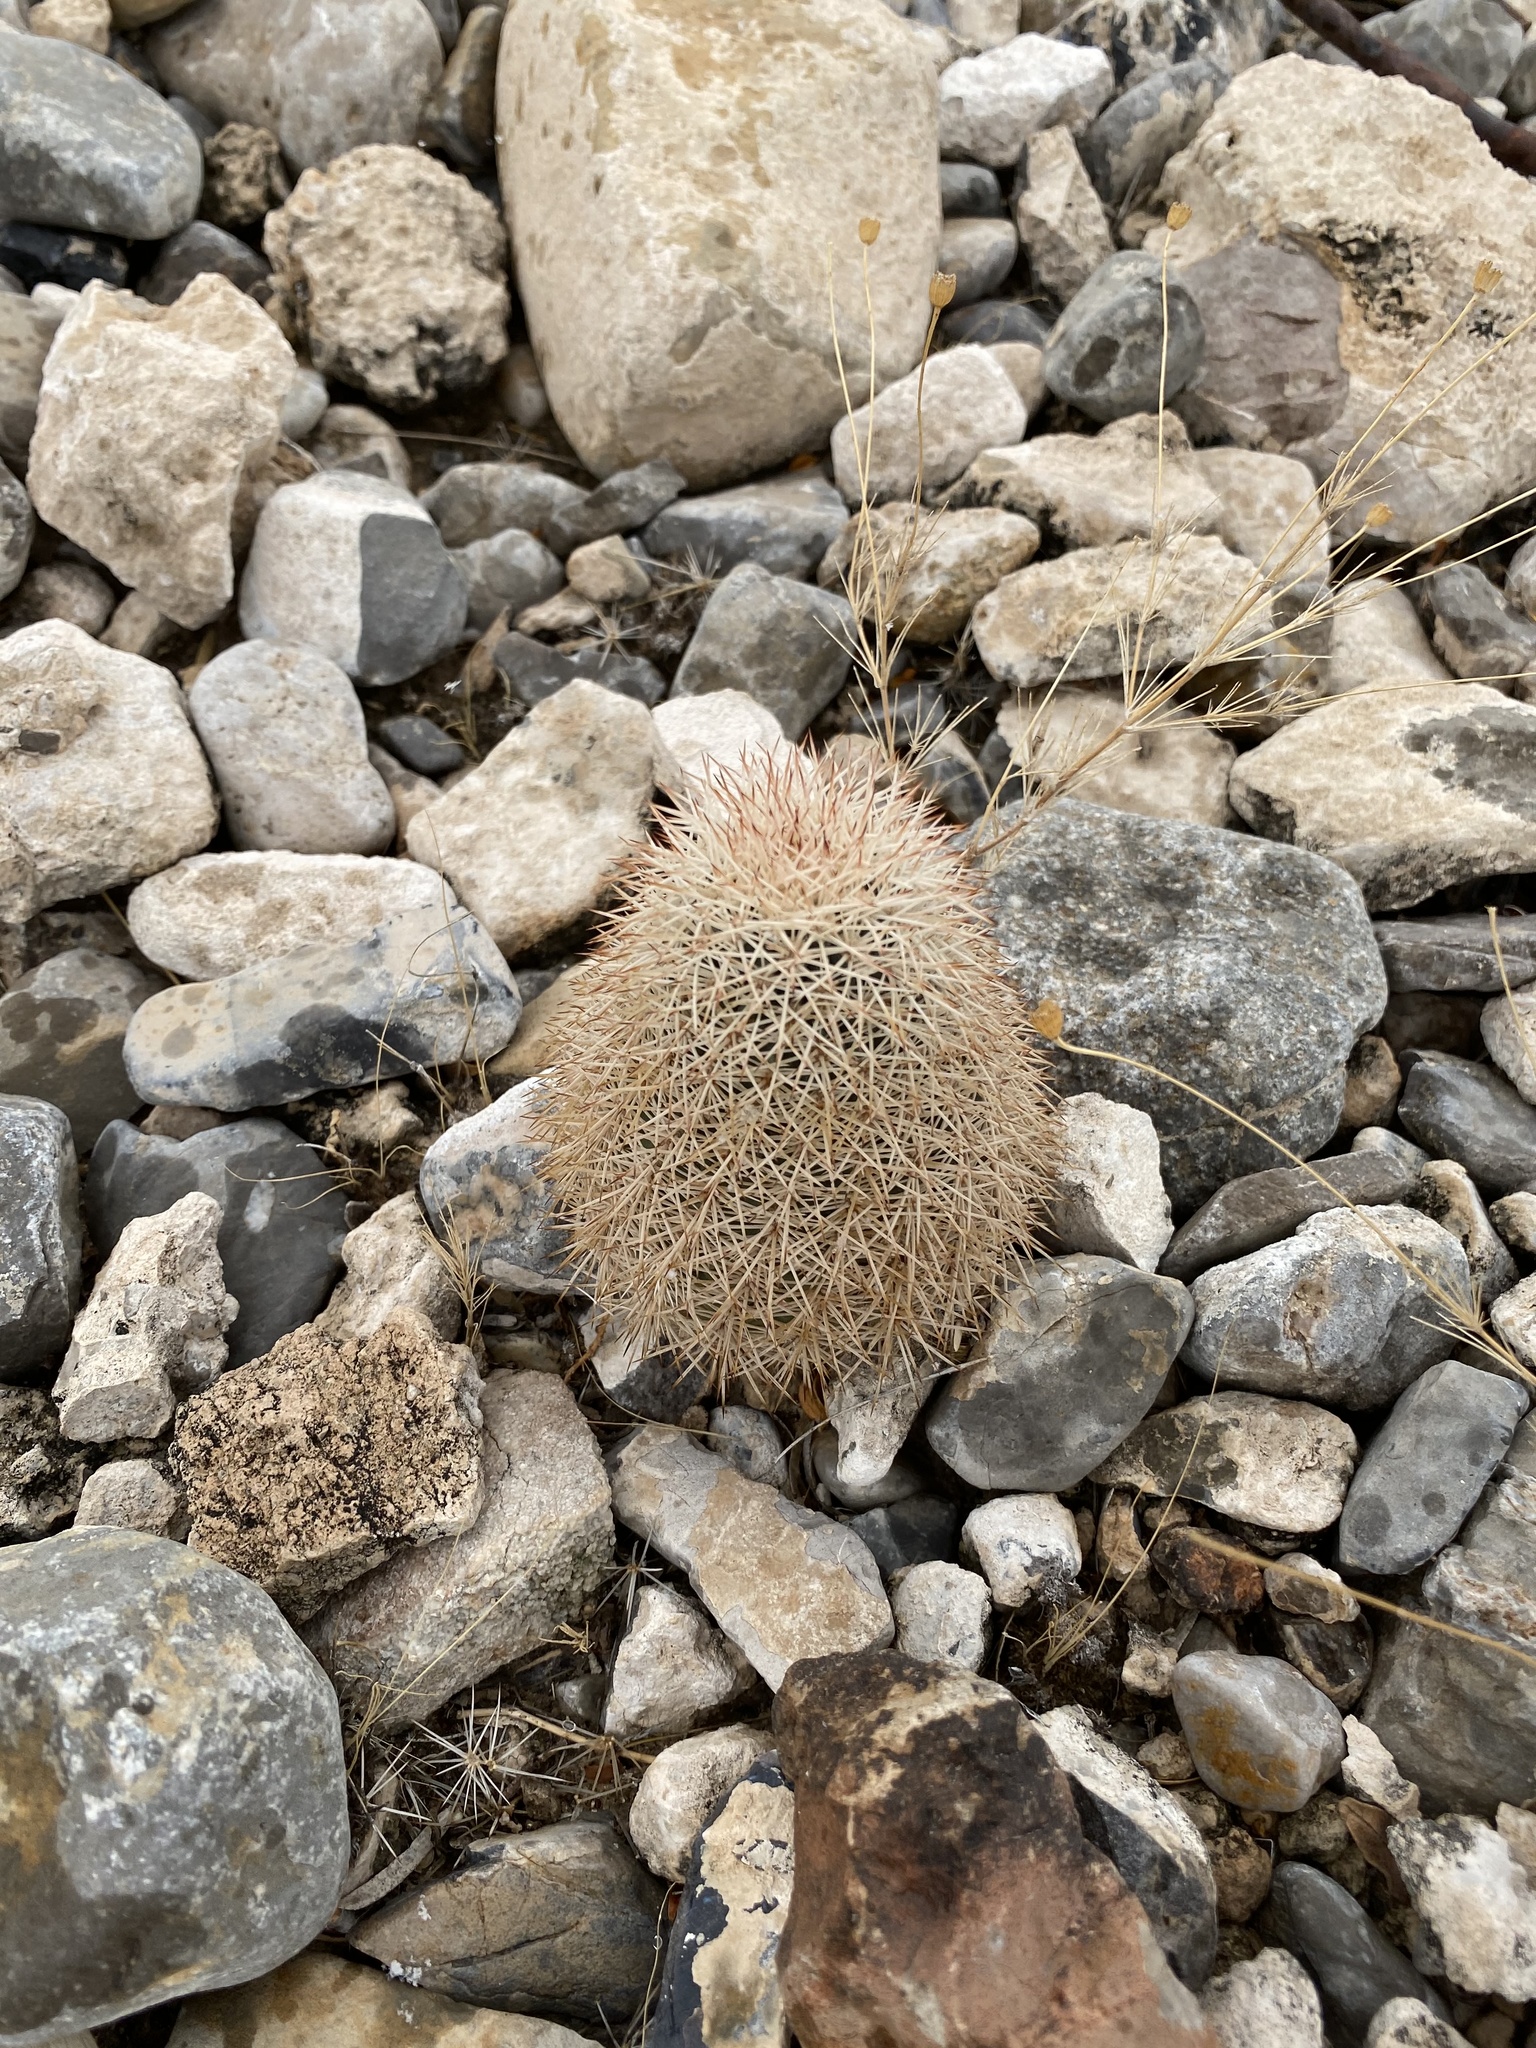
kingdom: Plantae
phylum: Tracheophyta
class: Magnoliopsida
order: Caryophyllales
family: Cactaceae
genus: Echinocereus
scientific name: Echinocereus dasyacanthus
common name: Spiny hedgehog cactus
